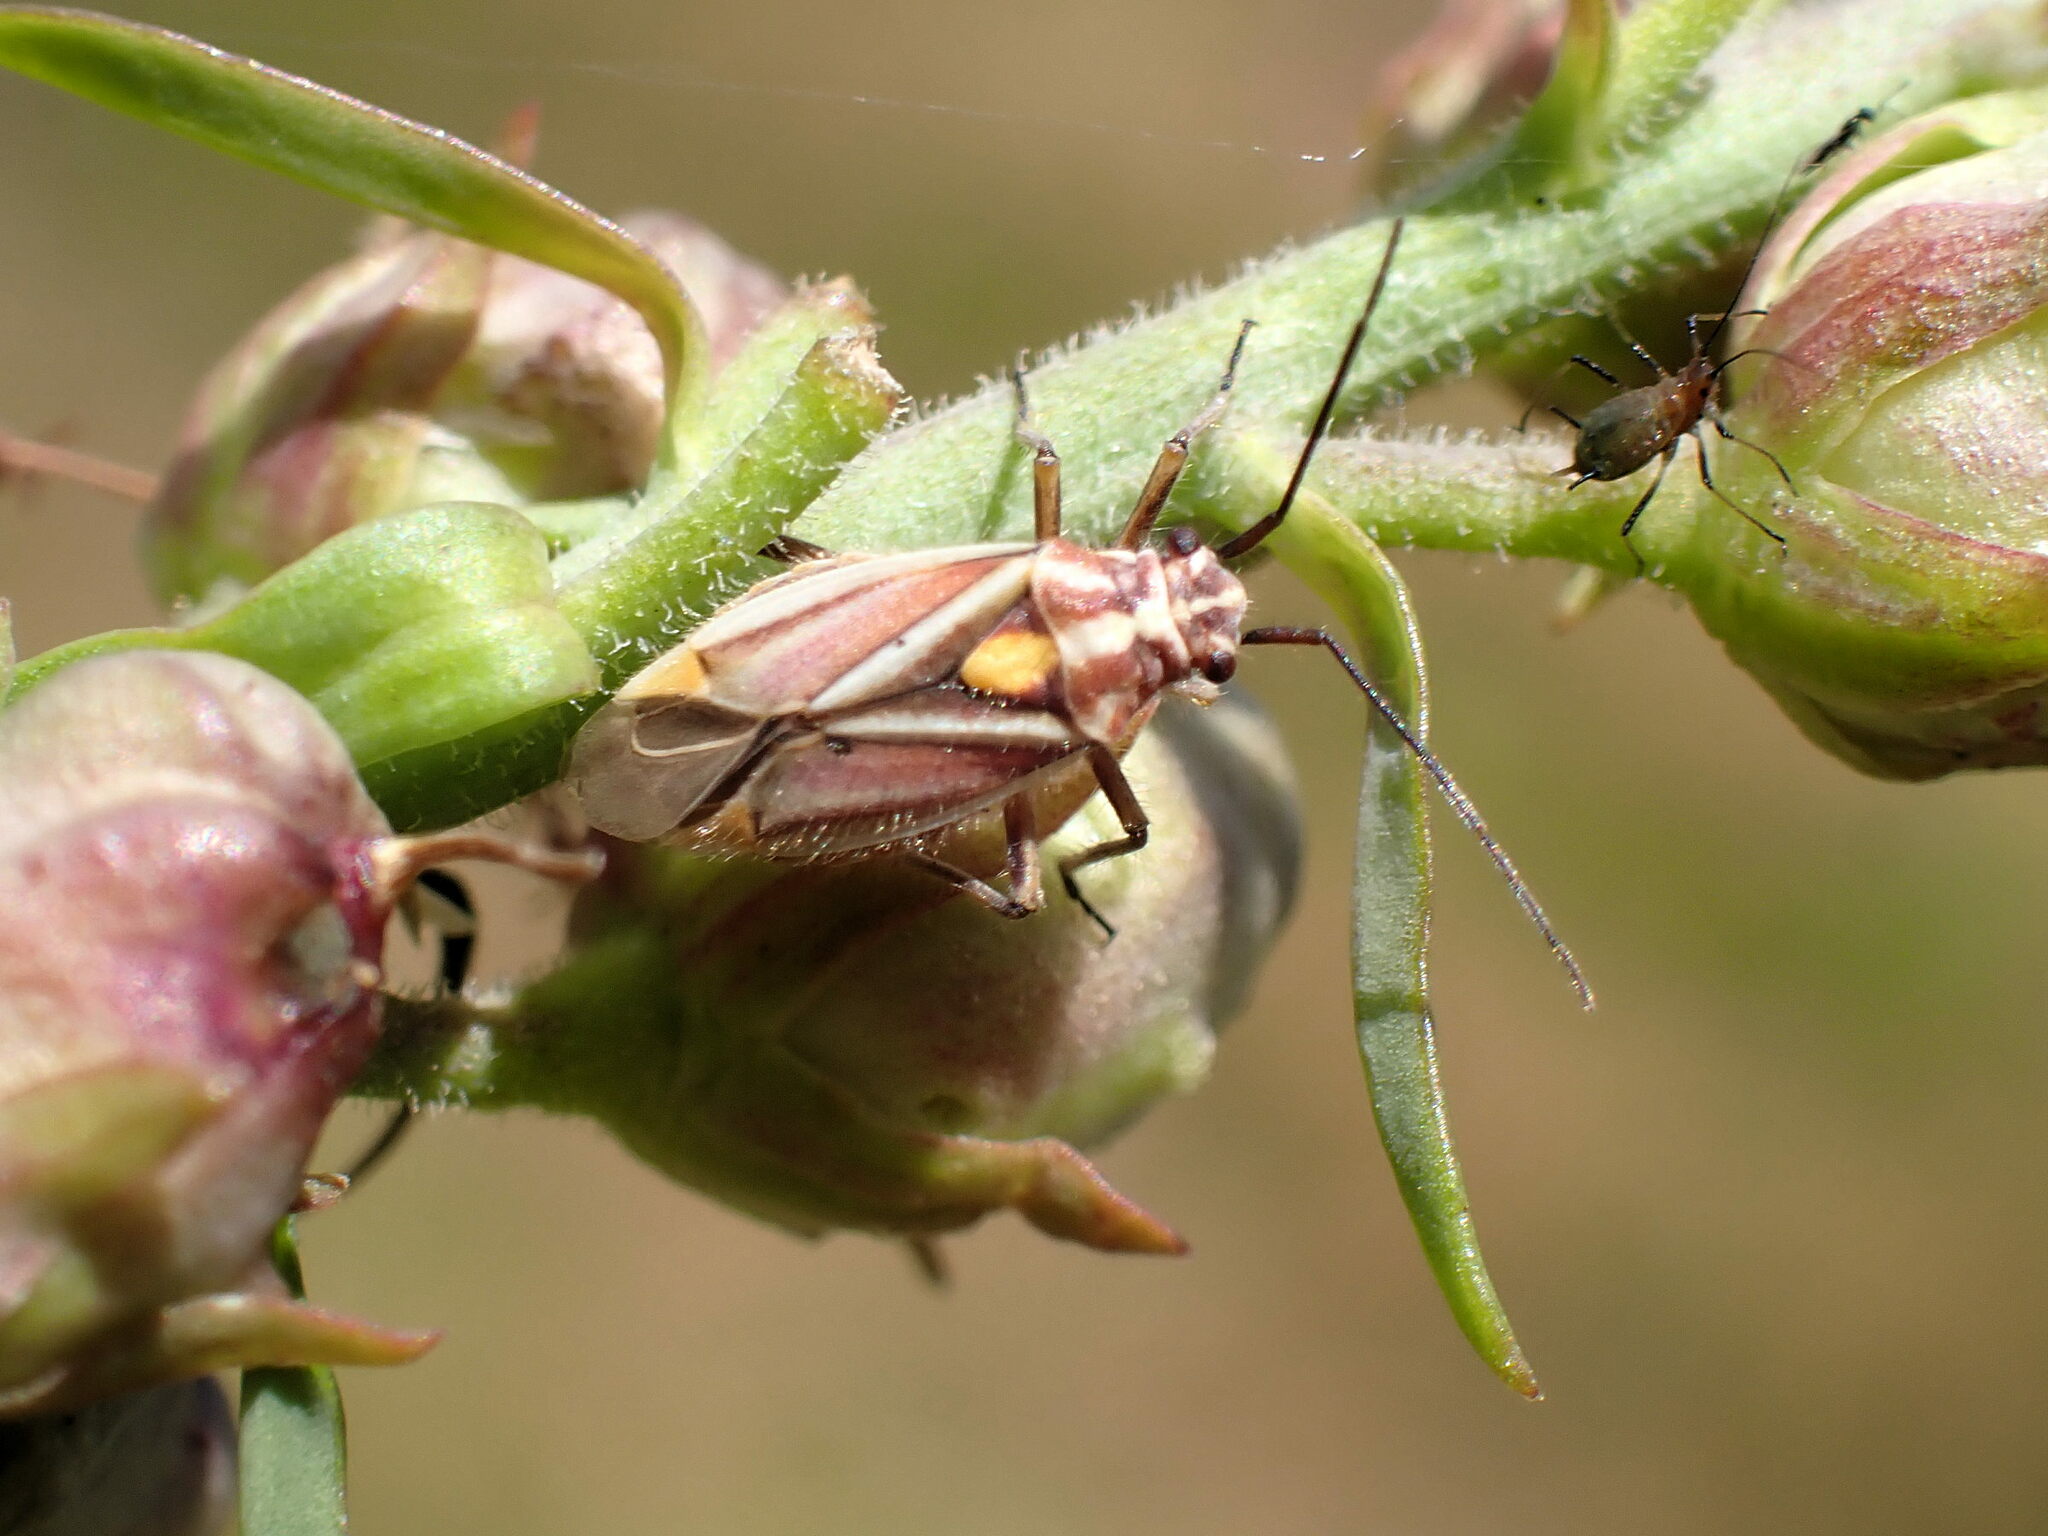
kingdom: Animalia
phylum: Arthropoda
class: Insecta
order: Hemiptera
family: Miridae
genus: Horistus
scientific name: Horistus orientalis
